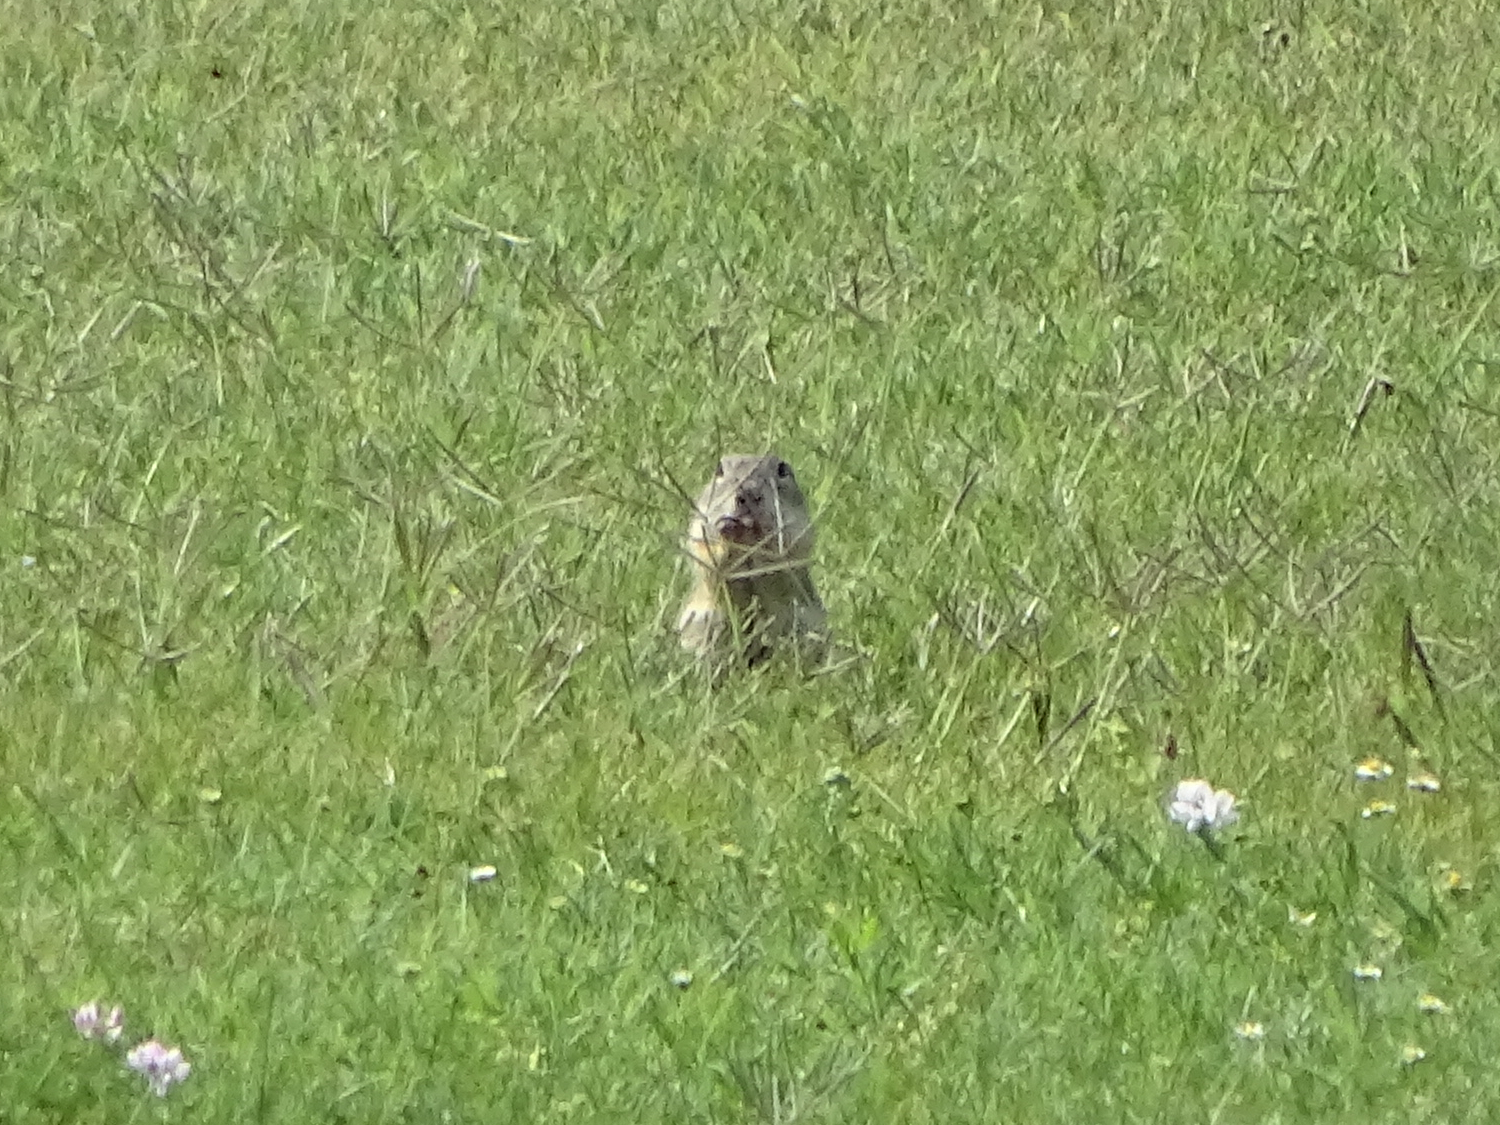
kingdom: Animalia
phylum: Chordata
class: Mammalia
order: Rodentia
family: Sciuridae
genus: Spermophilus
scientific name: Spermophilus citellus
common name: European ground squirrel
